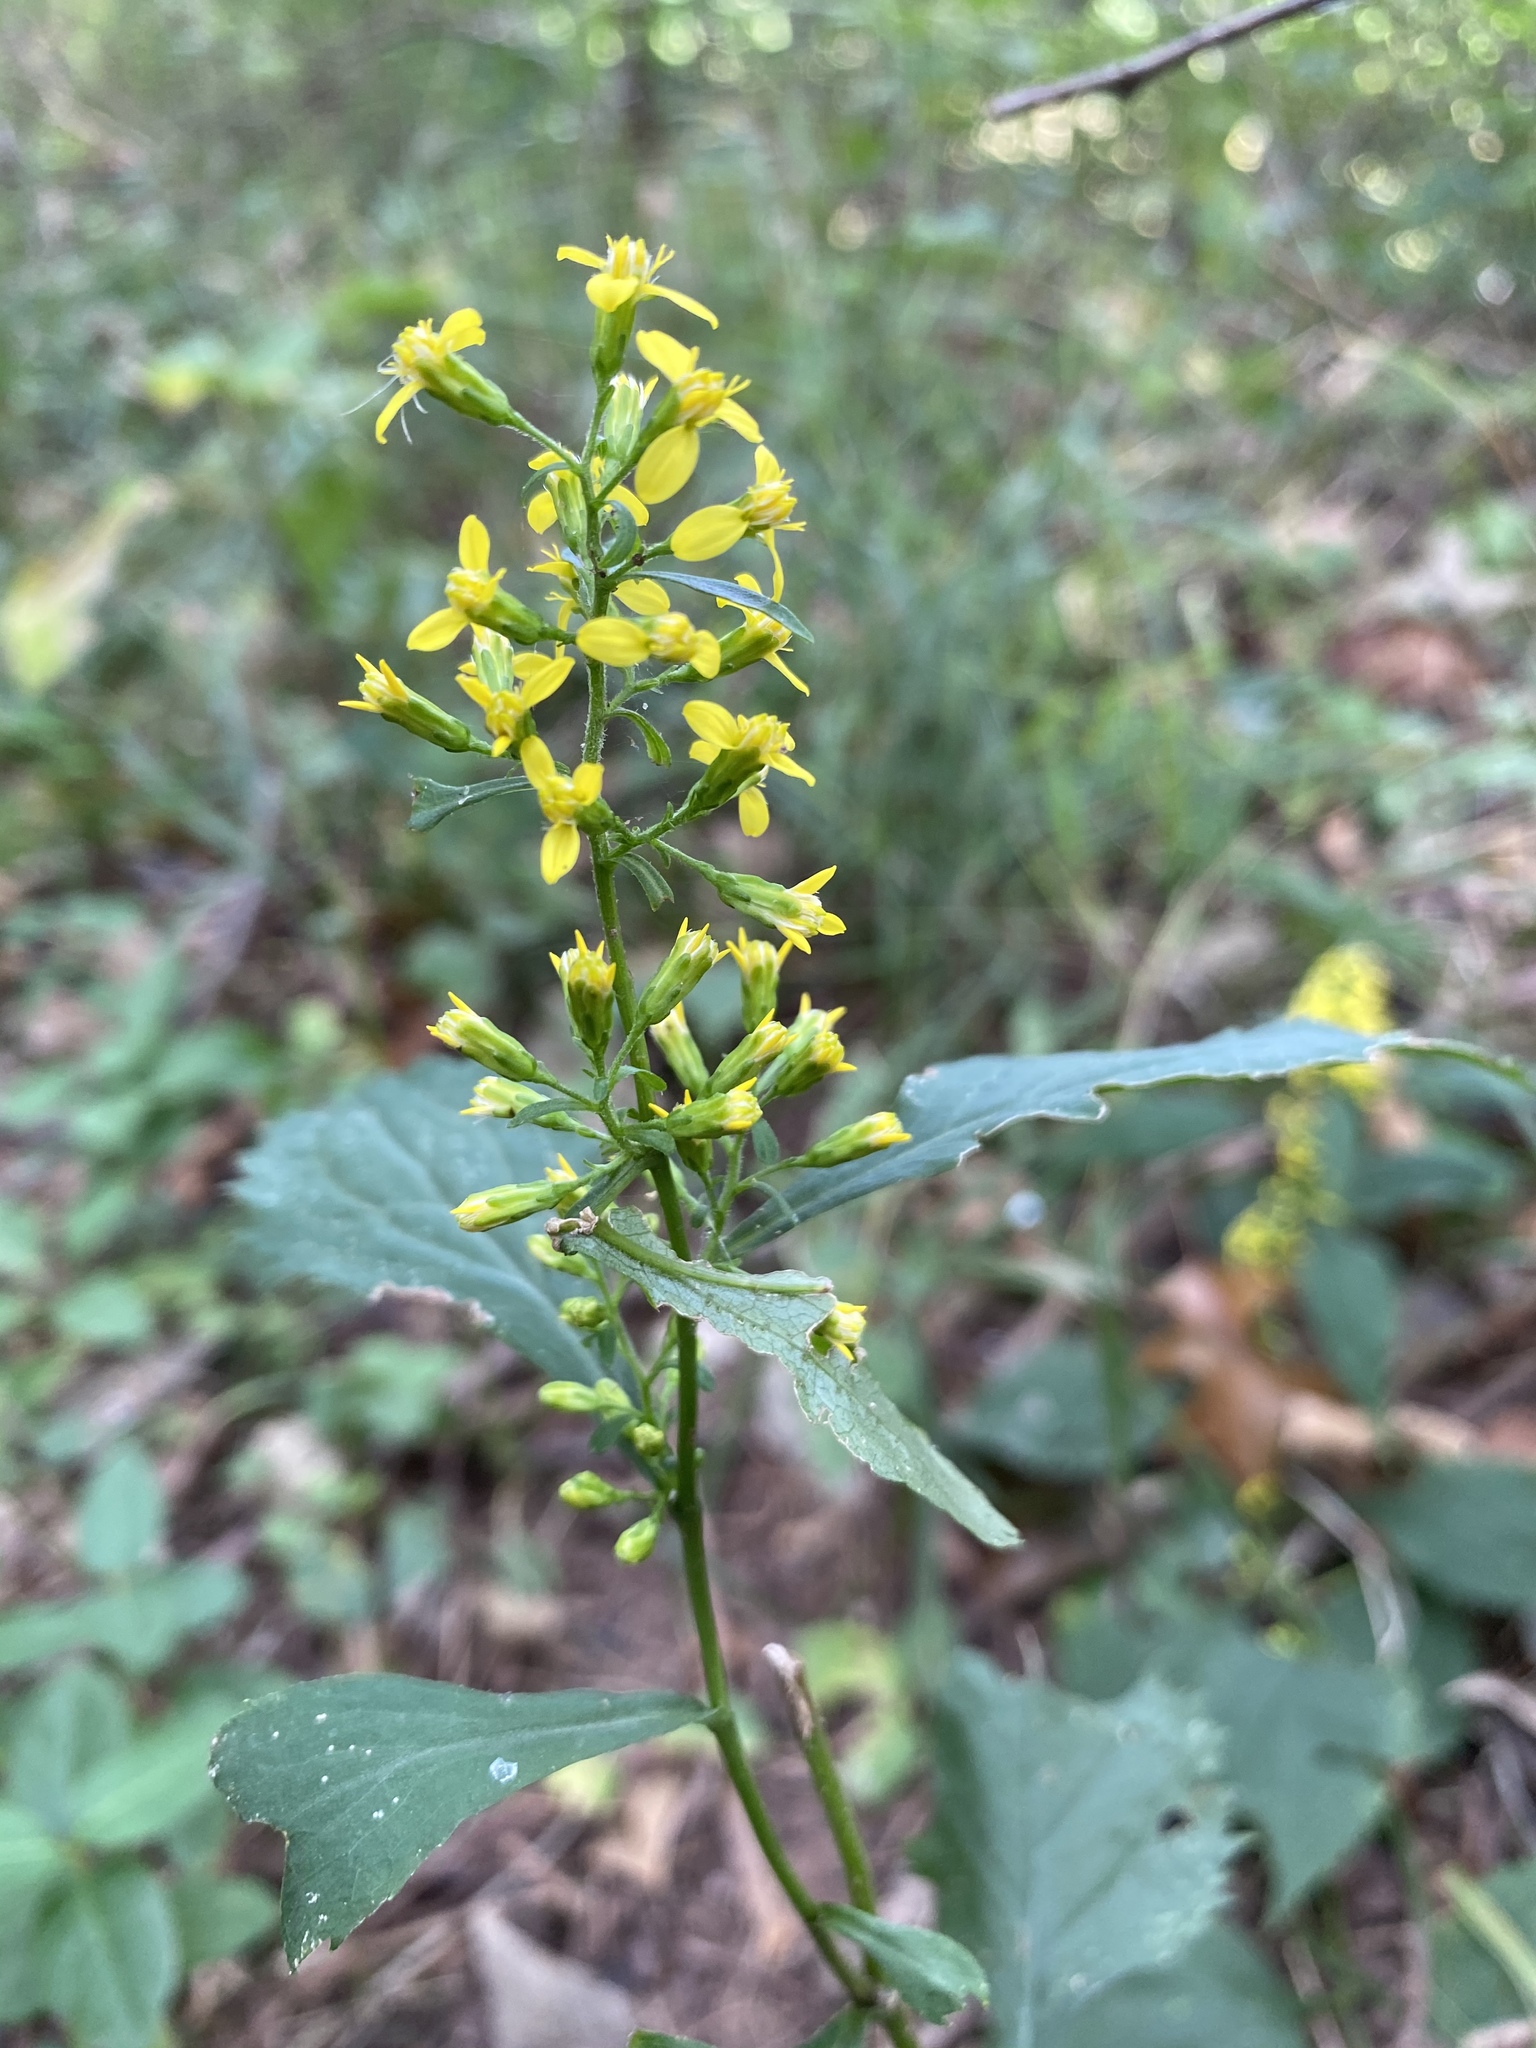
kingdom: Plantae
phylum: Tracheophyta
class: Magnoliopsida
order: Asterales
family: Asteraceae
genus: Solidago
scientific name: Solidago flexicaulis
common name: Zig-zag goldenrod
